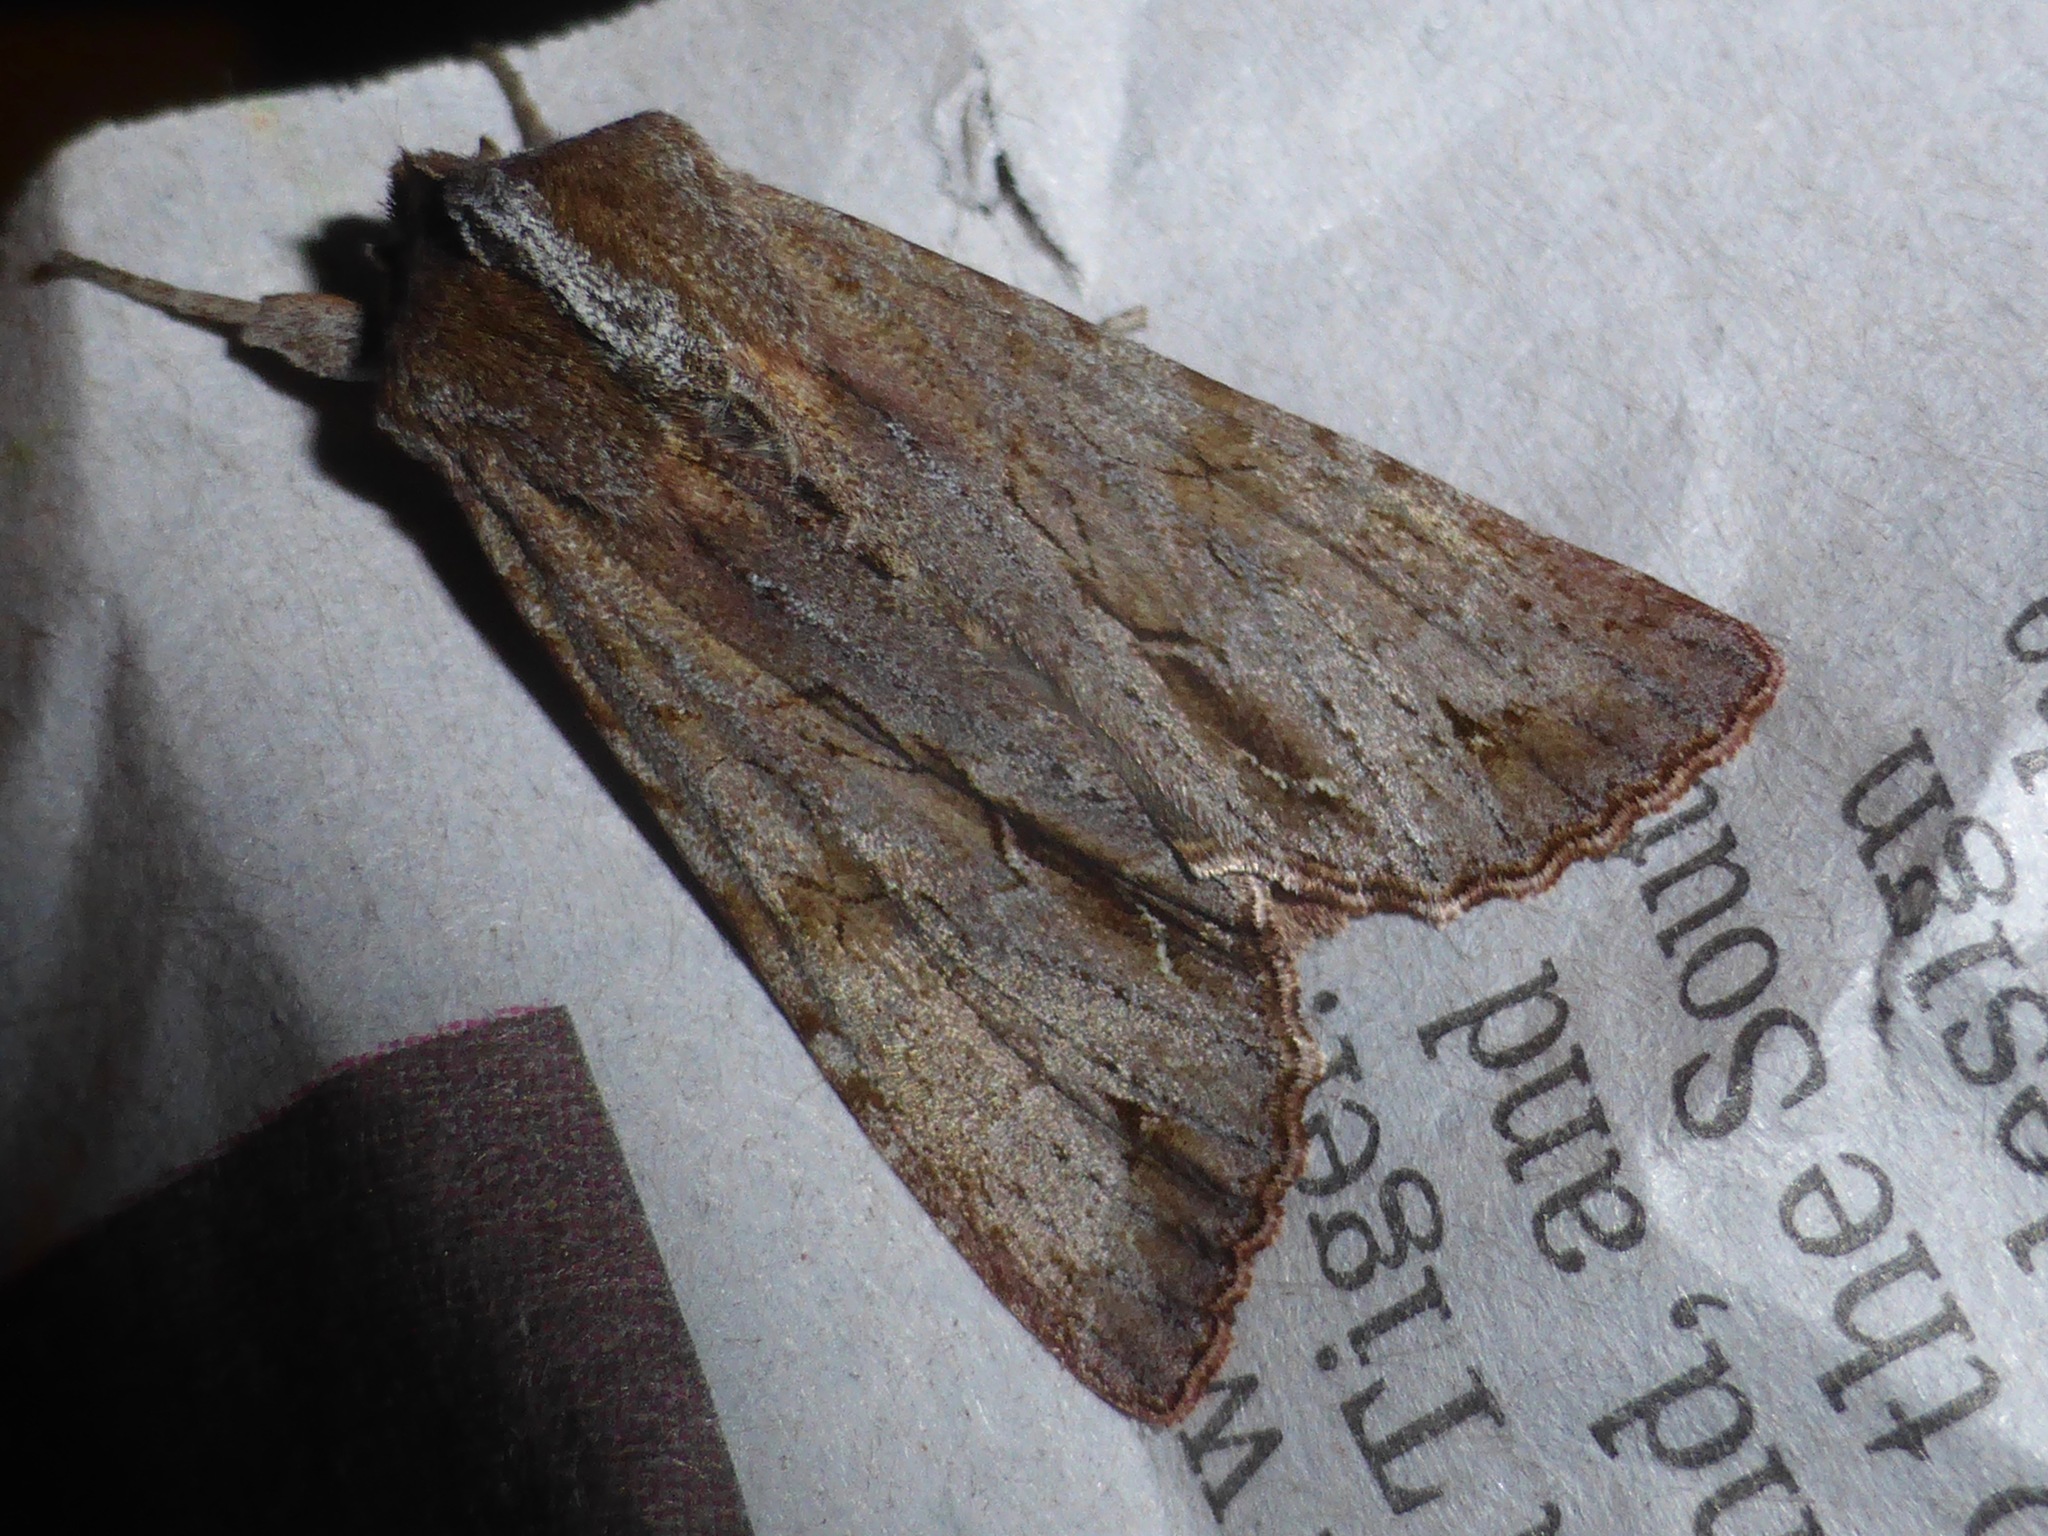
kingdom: Animalia
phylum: Arthropoda
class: Insecta
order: Lepidoptera
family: Noctuidae
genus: Ichneutica
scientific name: Ichneutica
